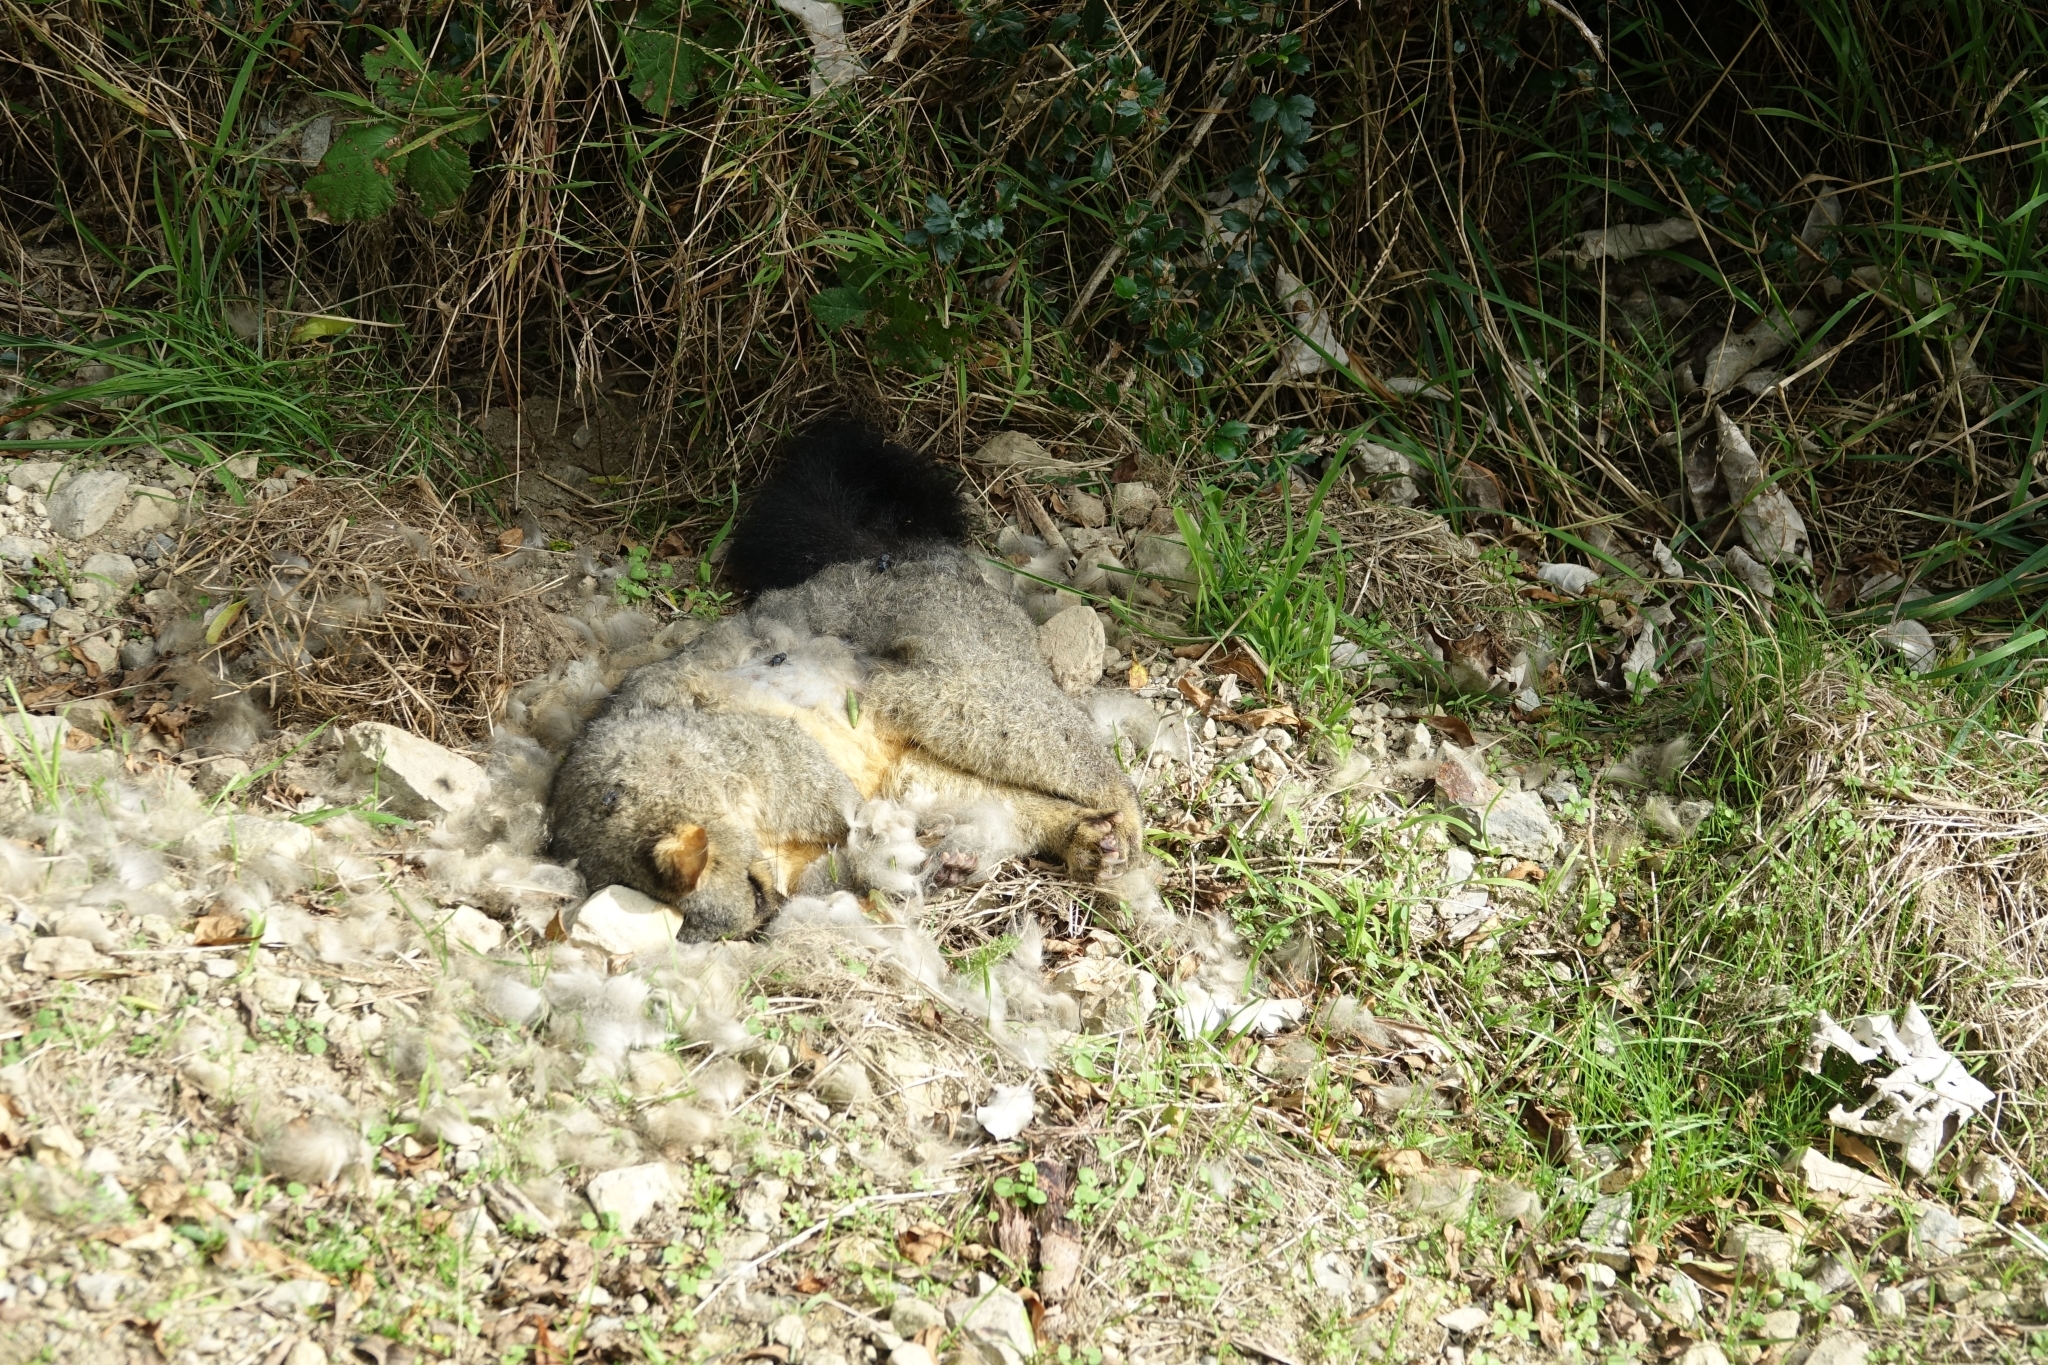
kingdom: Animalia
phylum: Chordata
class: Mammalia
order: Diprotodontia
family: Phalangeridae
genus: Trichosurus
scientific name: Trichosurus vulpecula
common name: Common brushtail
